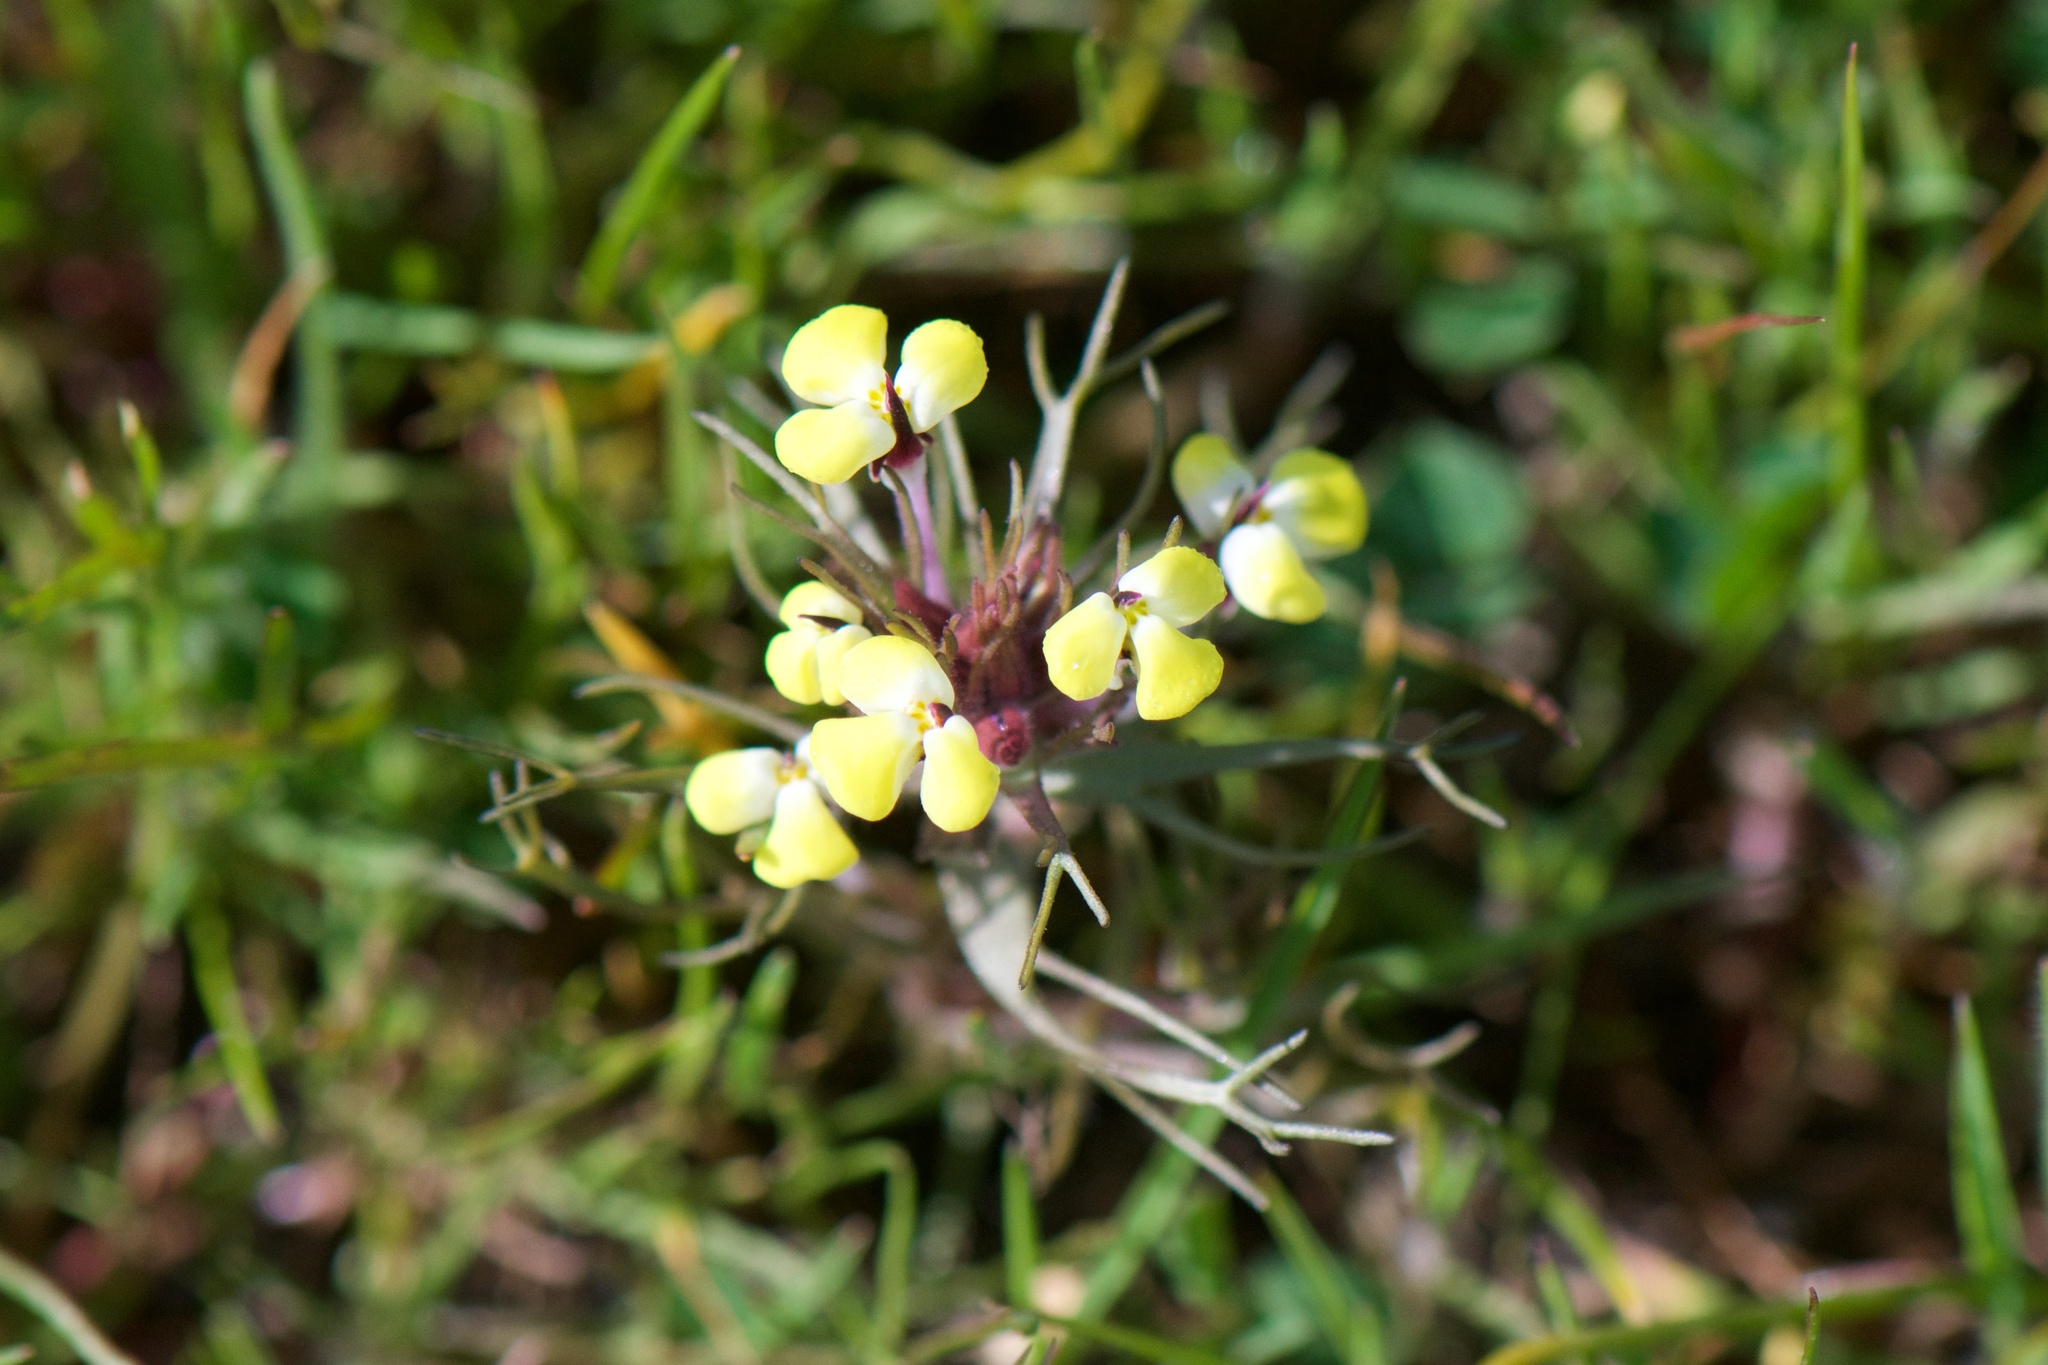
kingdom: Plantae
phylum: Tracheophyta
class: Magnoliopsida
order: Lamiales
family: Orobanchaceae
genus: Triphysaria
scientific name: Triphysaria eriantha
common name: Johnny-tuck
